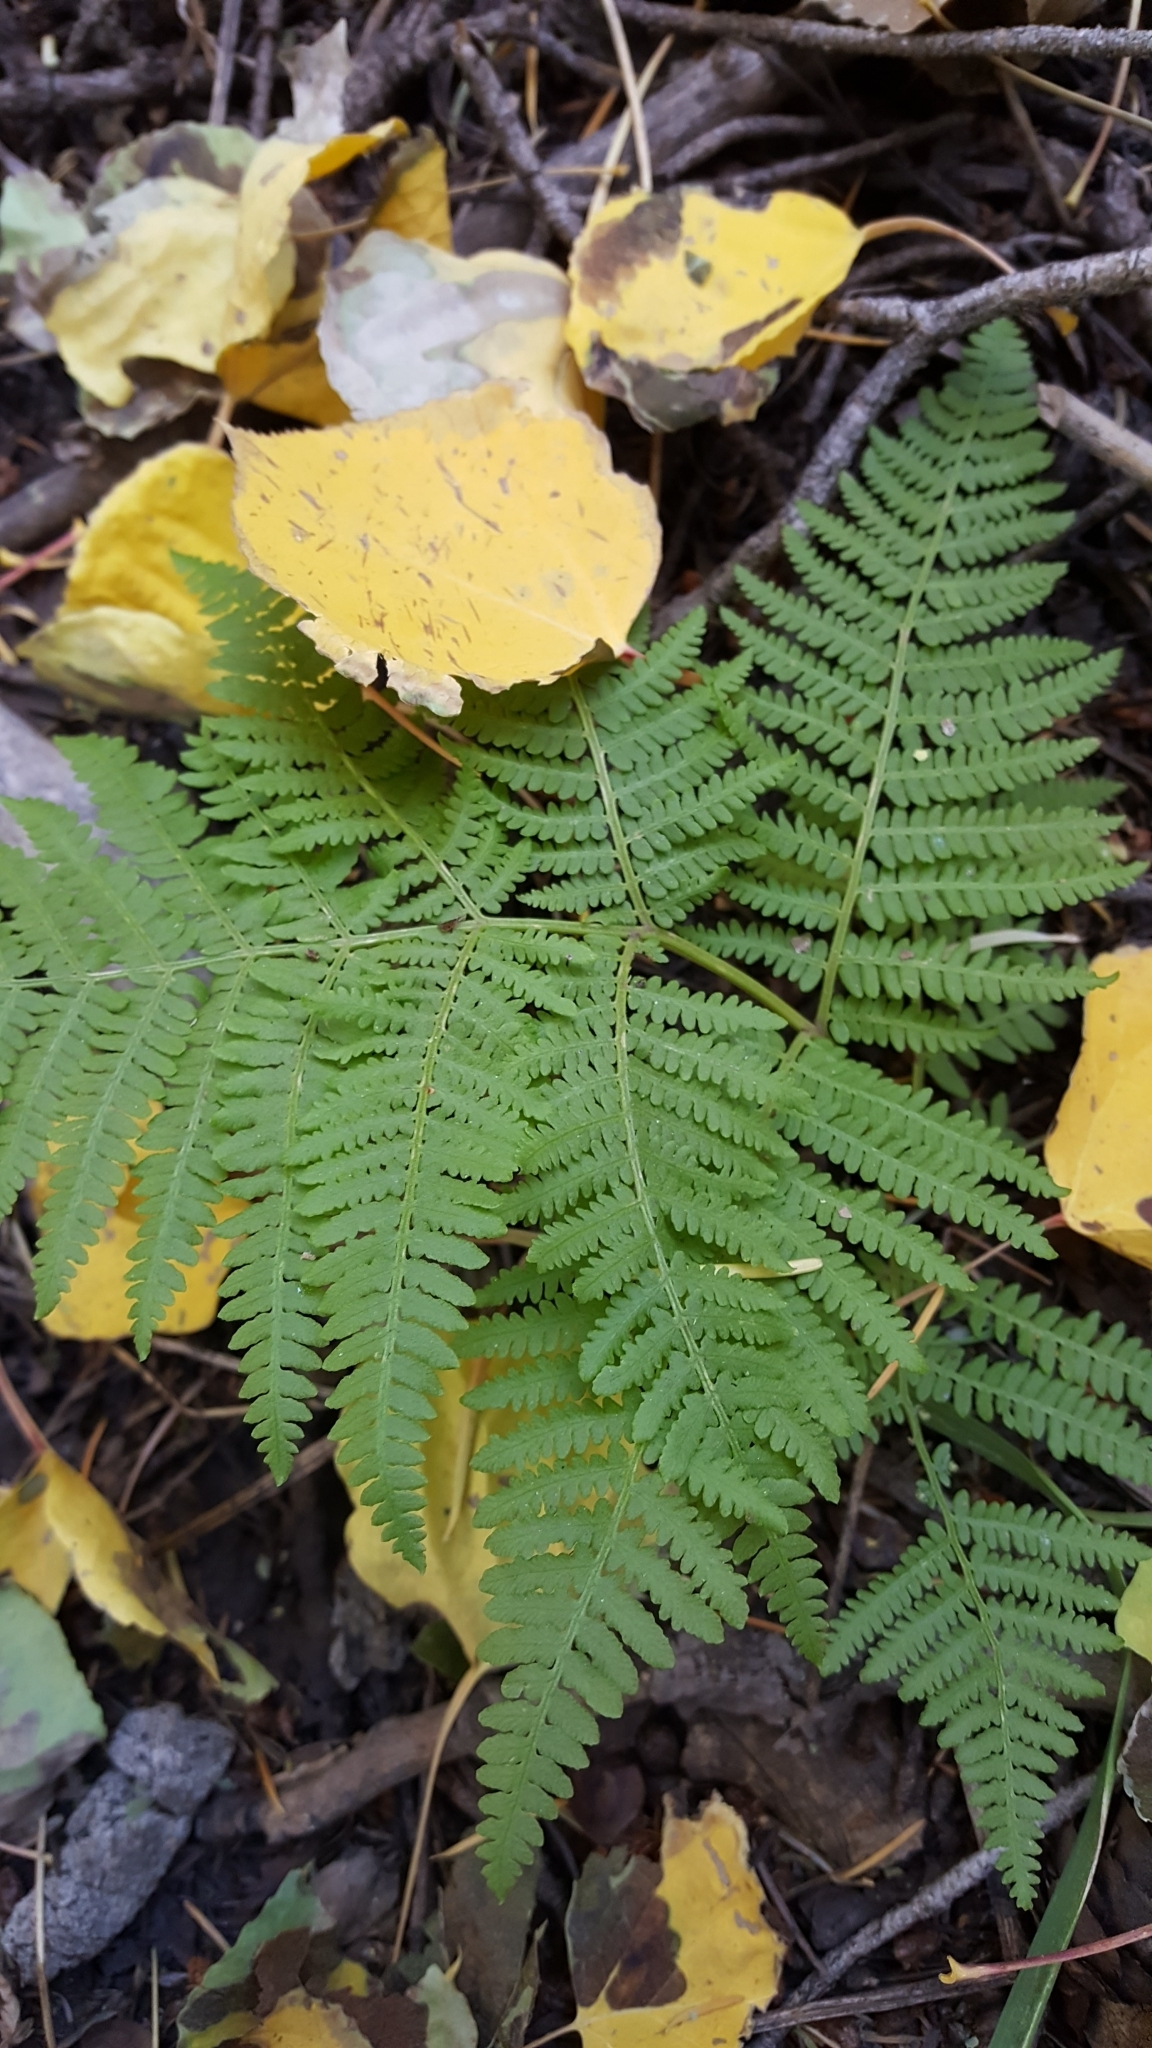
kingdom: Plantae
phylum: Tracheophyta
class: Polypodiopsida
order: Polypodiales
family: Dennstaedtiaceae
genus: Pteridium
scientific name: Pteridium aquilinum
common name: Bracken
